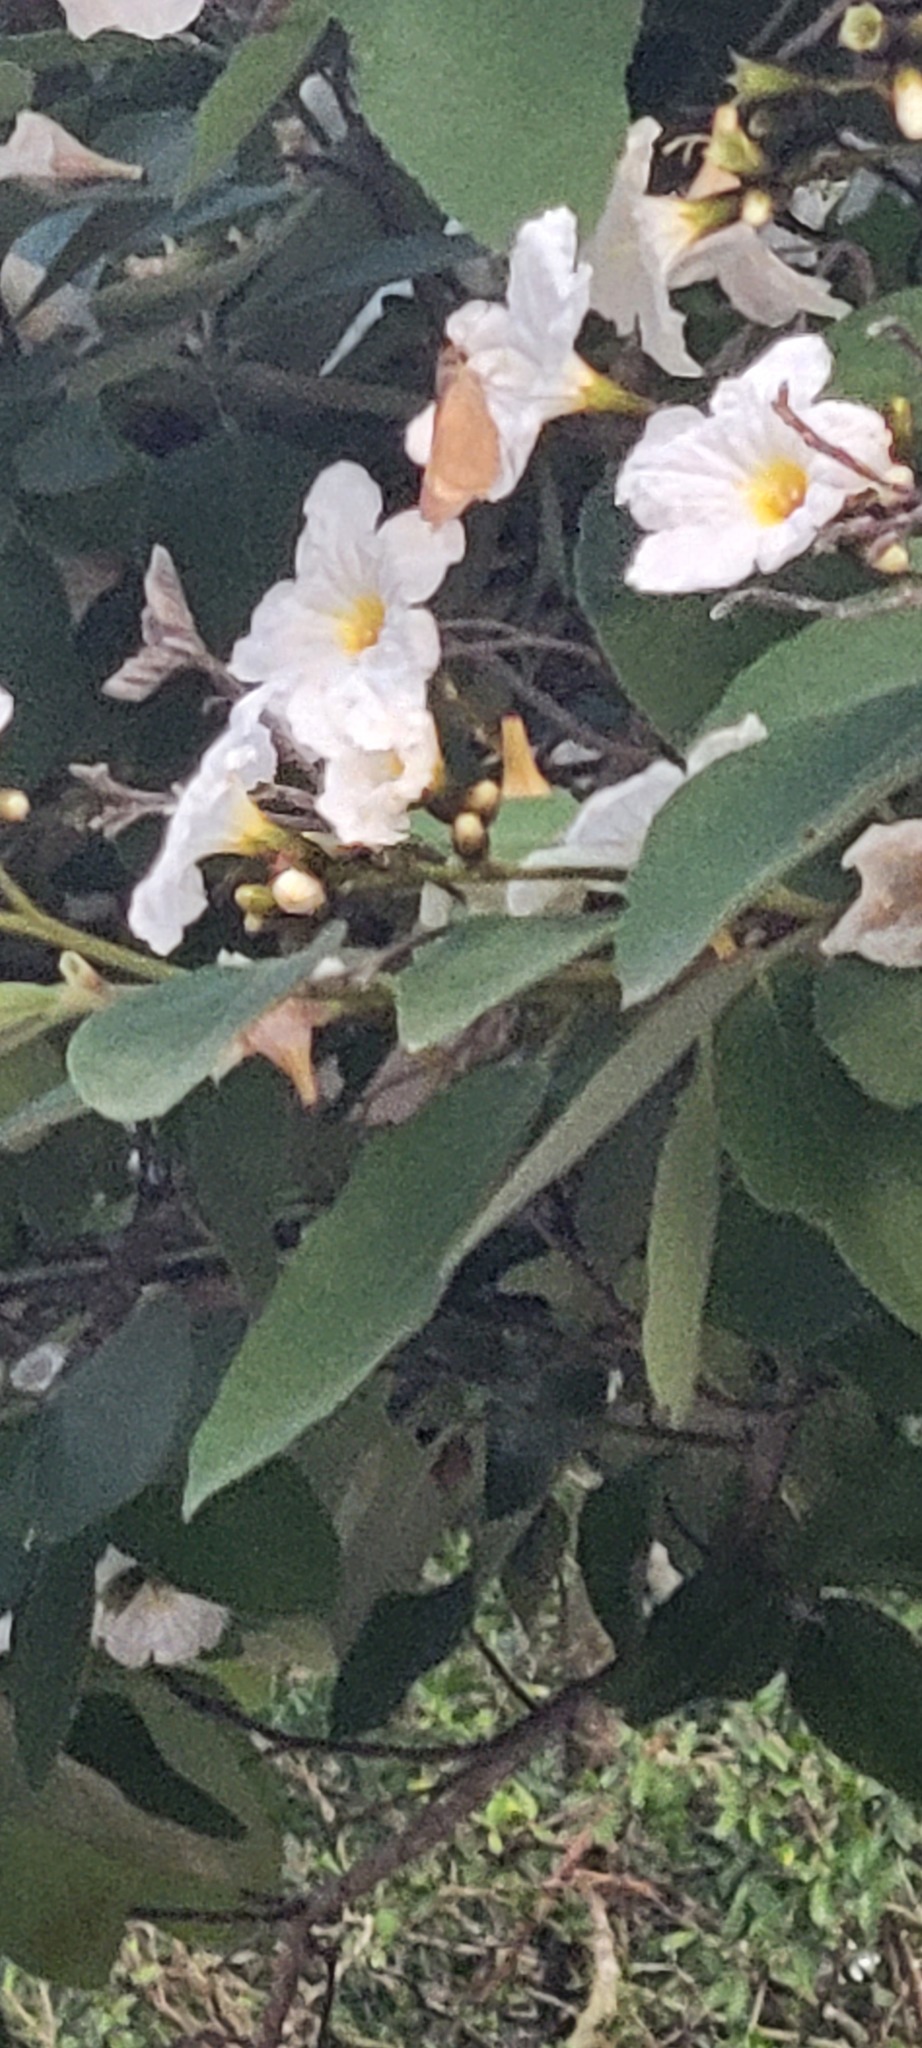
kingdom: Plantae
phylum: Tracheophyta
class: Magnoliopsida
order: Boraginales
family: Cordiaceae
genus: Cordia
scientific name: Cordia boissieri
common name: Mexican-olive
